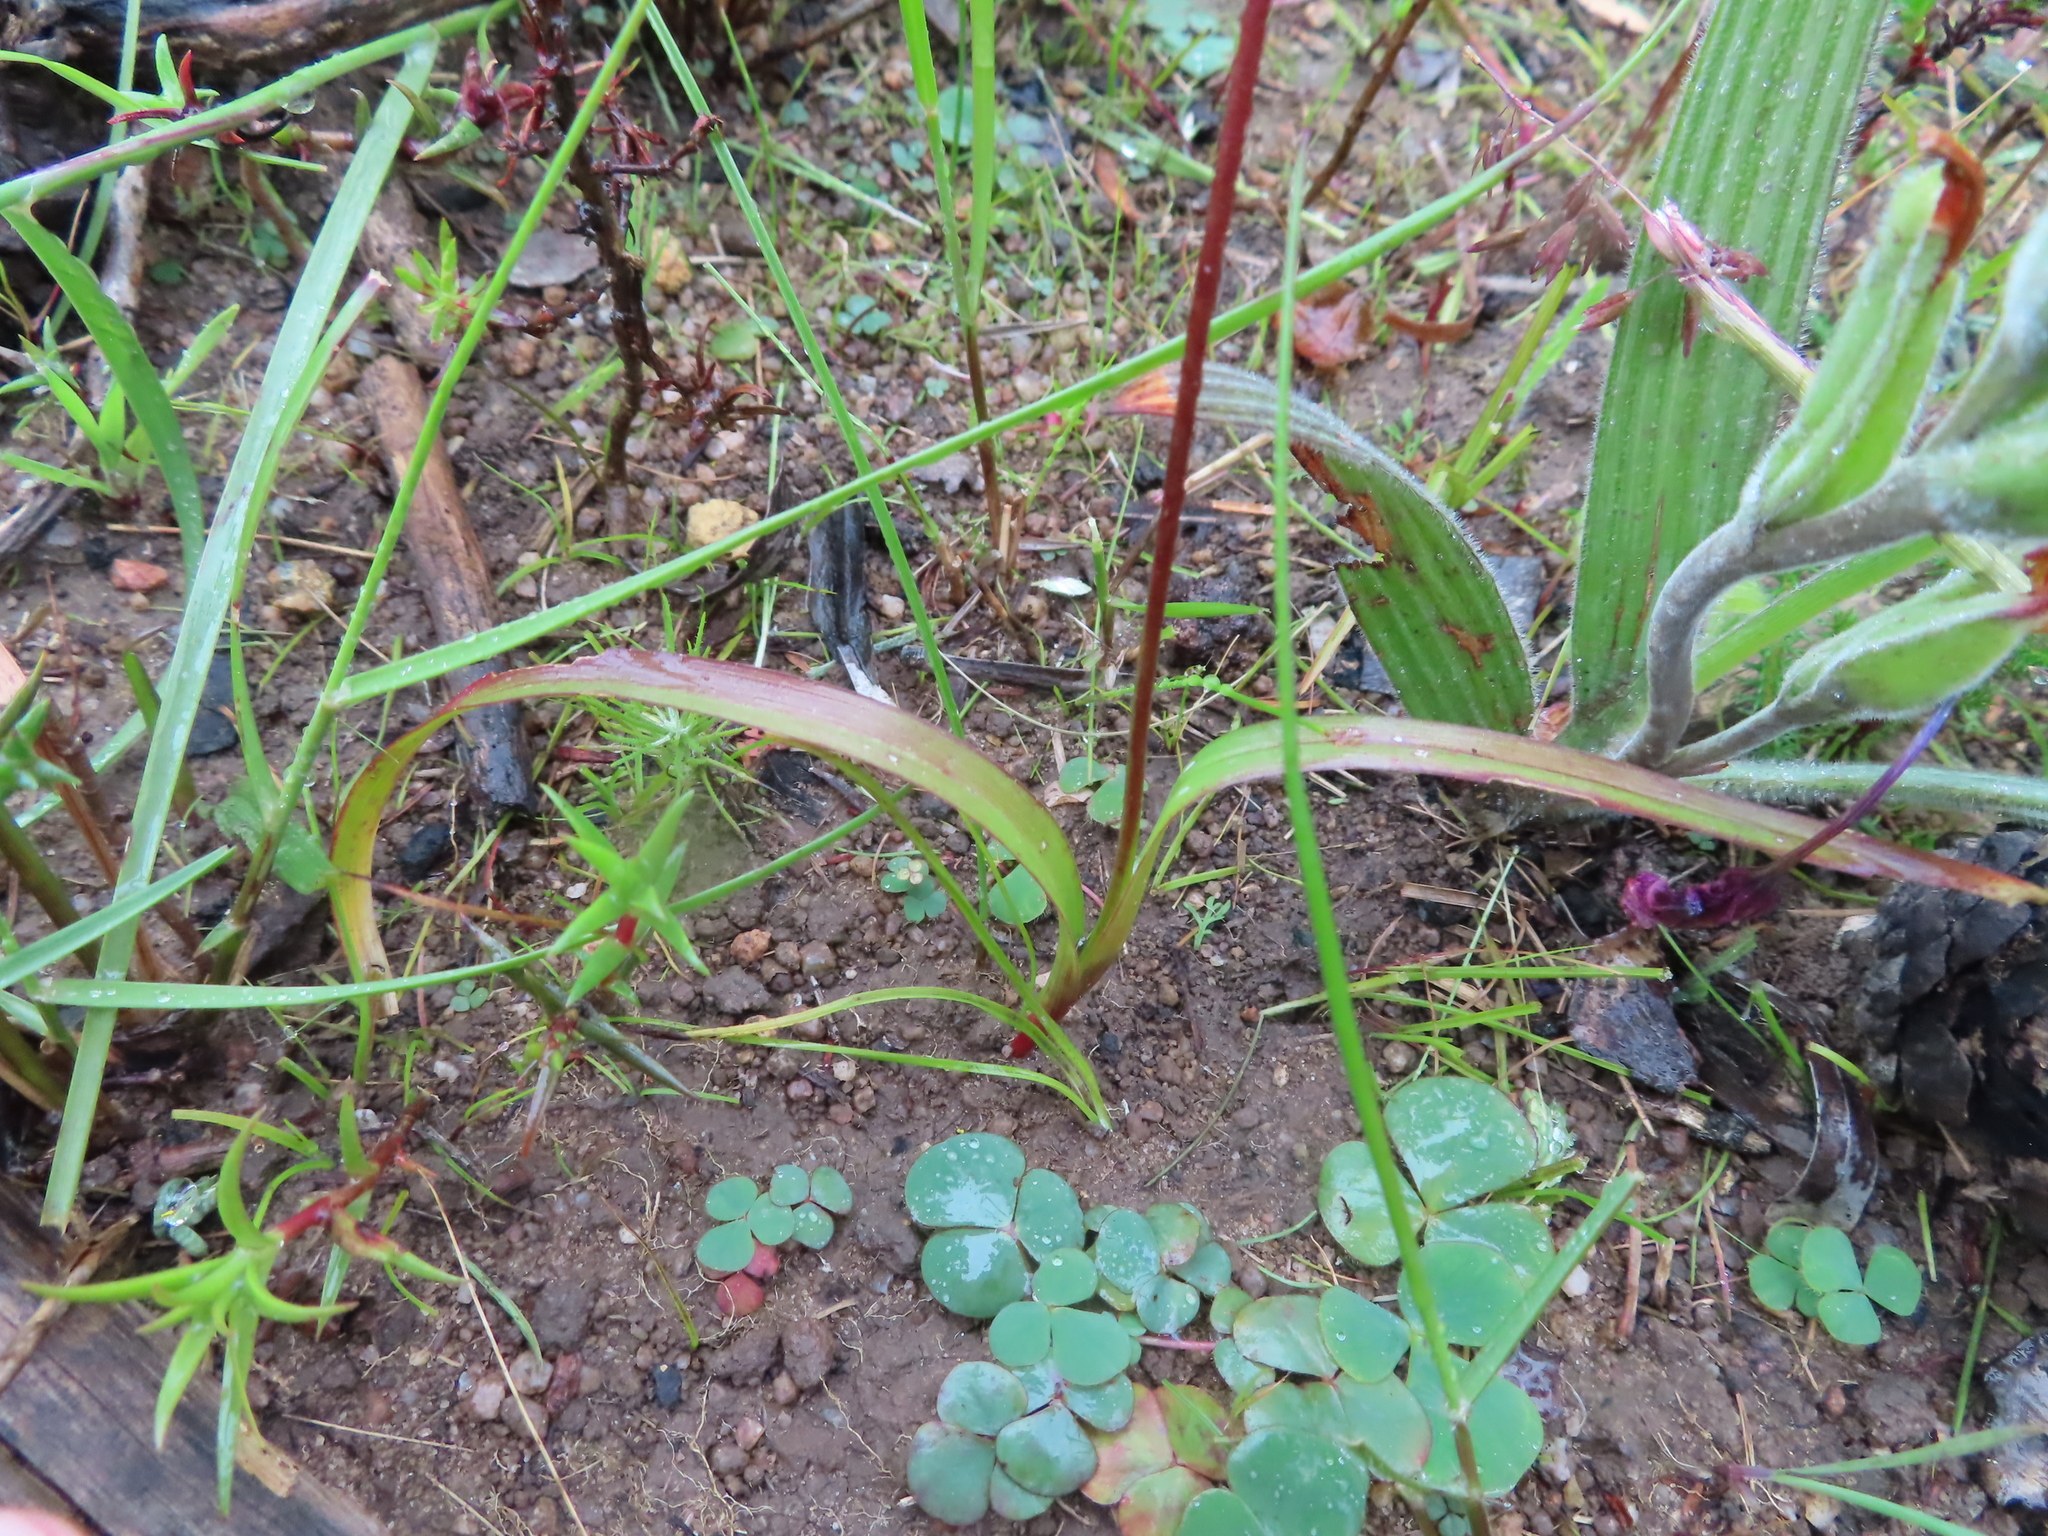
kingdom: Plantae
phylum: Tracheophyta
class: Liliopsida
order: Asparagales
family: Iridaceae
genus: Moraea
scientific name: Moraea gawleri
